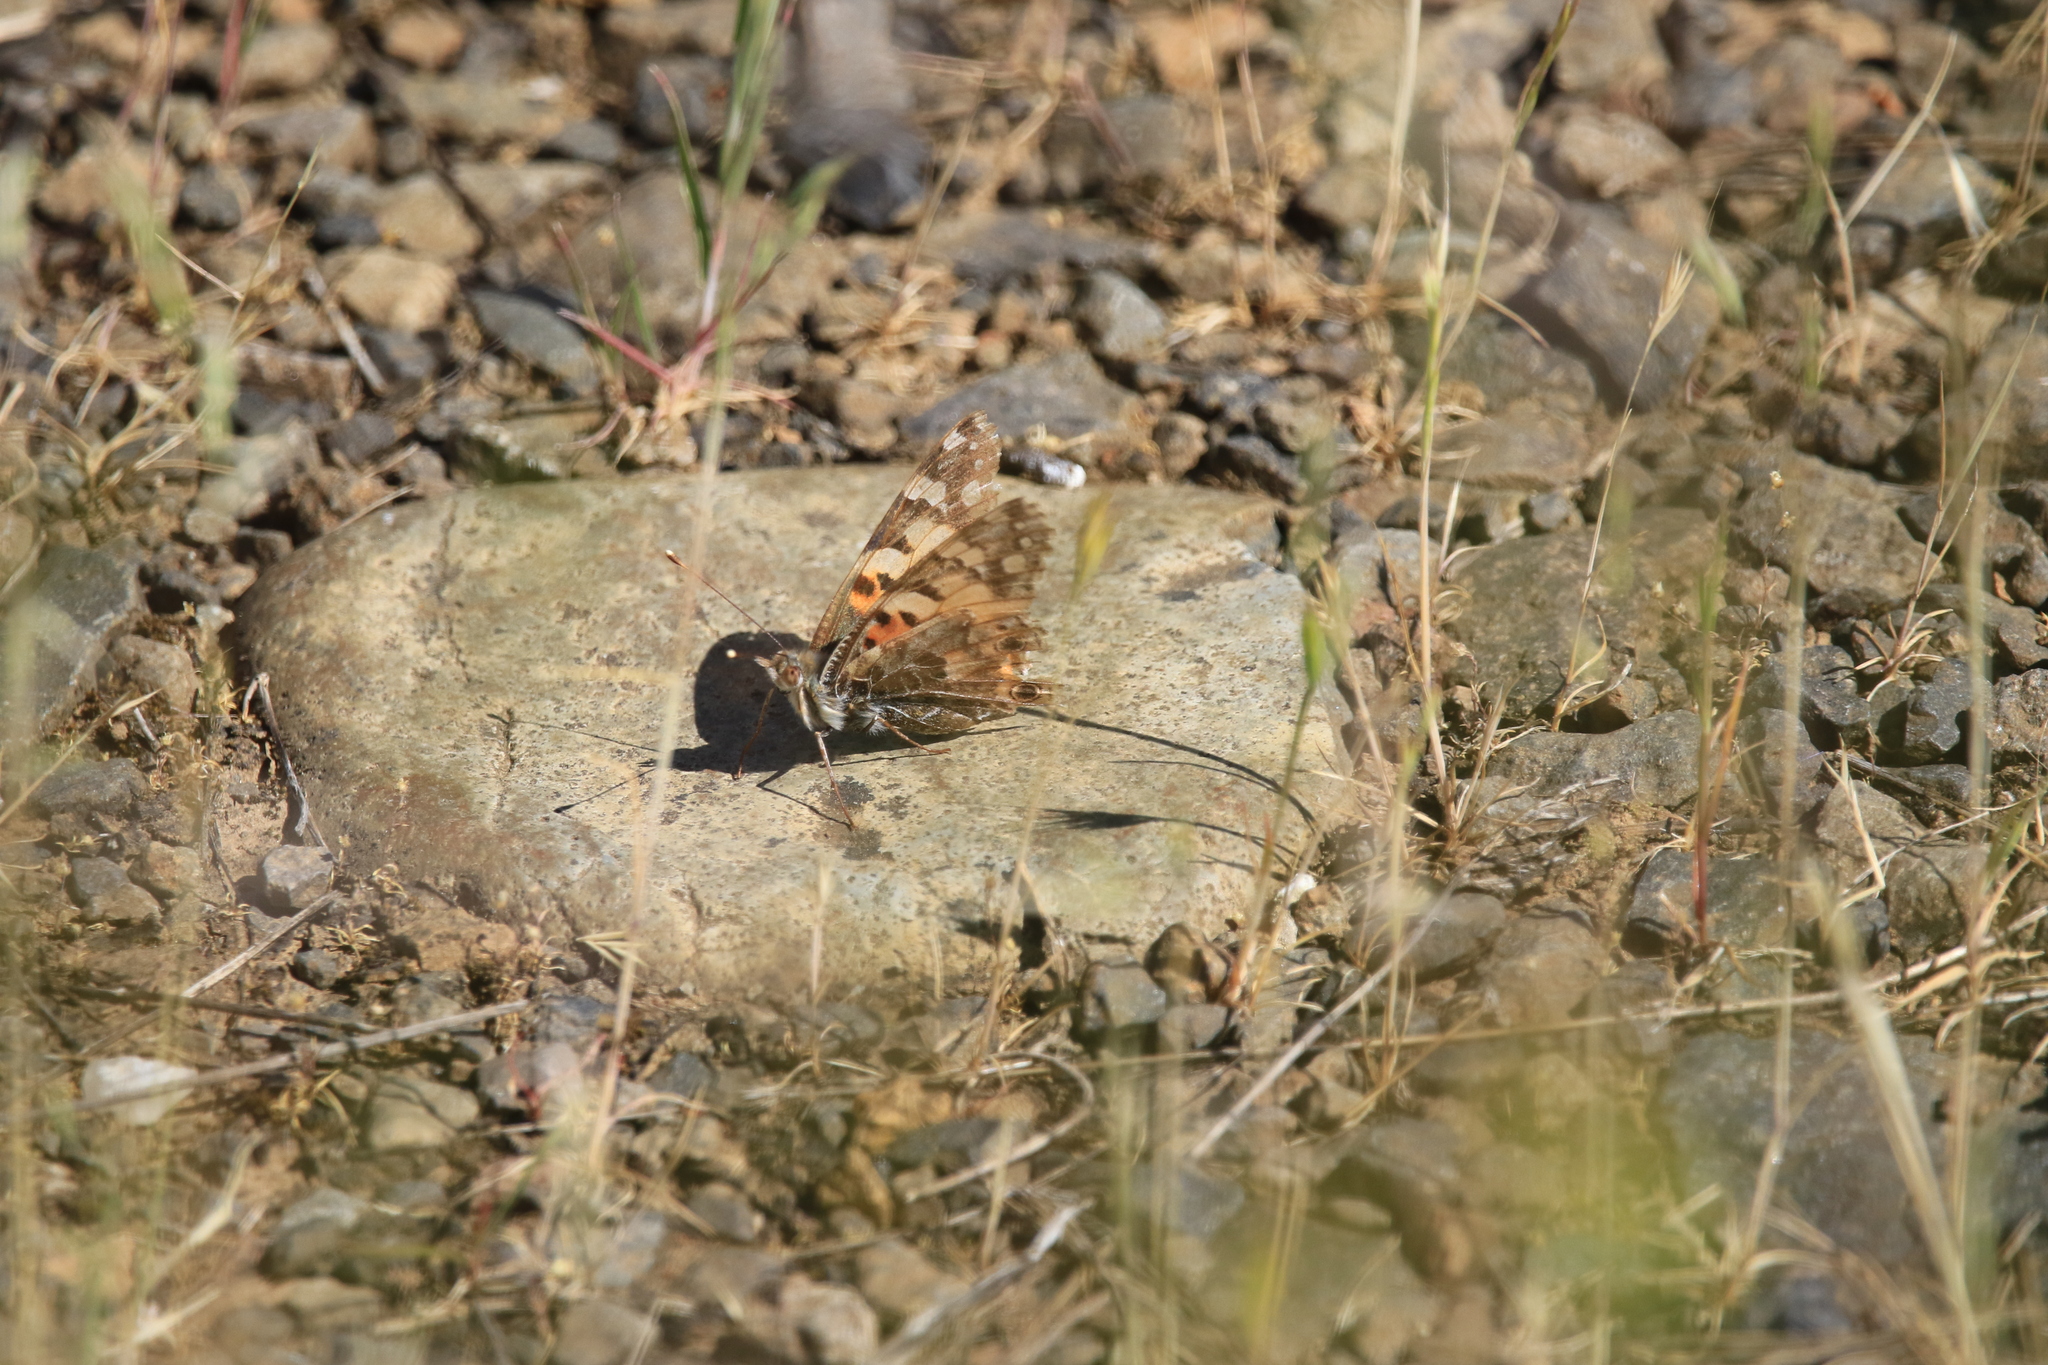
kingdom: Animalia
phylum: Arthropoda
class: Insecta
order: Lepidoptera
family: Nymphalidae
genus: Vanessa
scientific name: Vanessa cardui
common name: Painted lady
